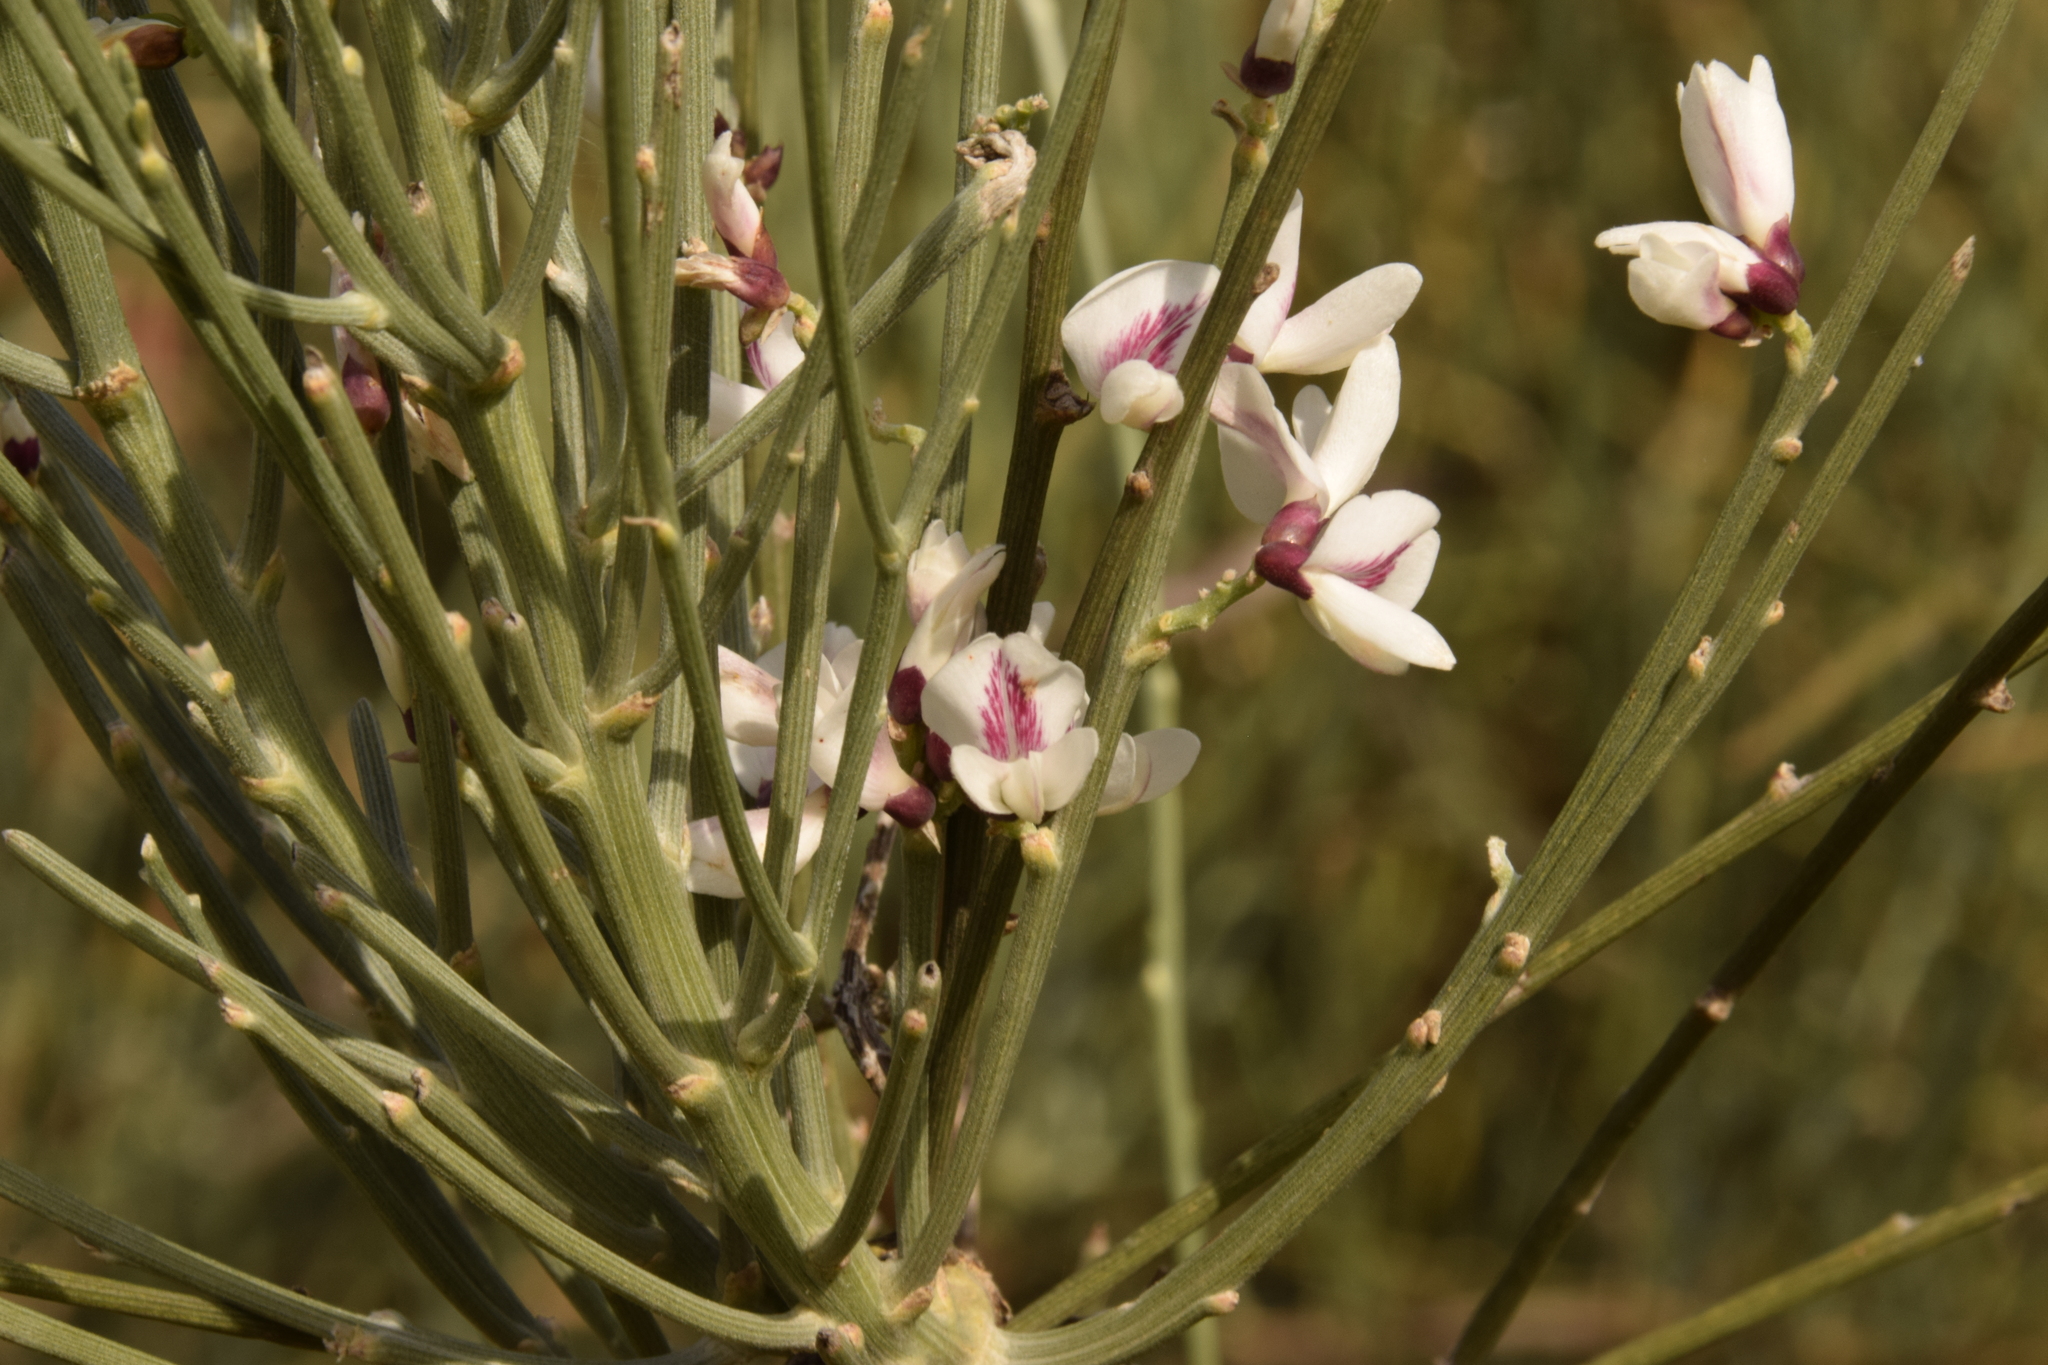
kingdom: Plantae
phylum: Tracheophyta
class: Magnoliopsida
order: Fabales
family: Fabaceae
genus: Retama
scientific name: Retama raetam
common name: Retem
